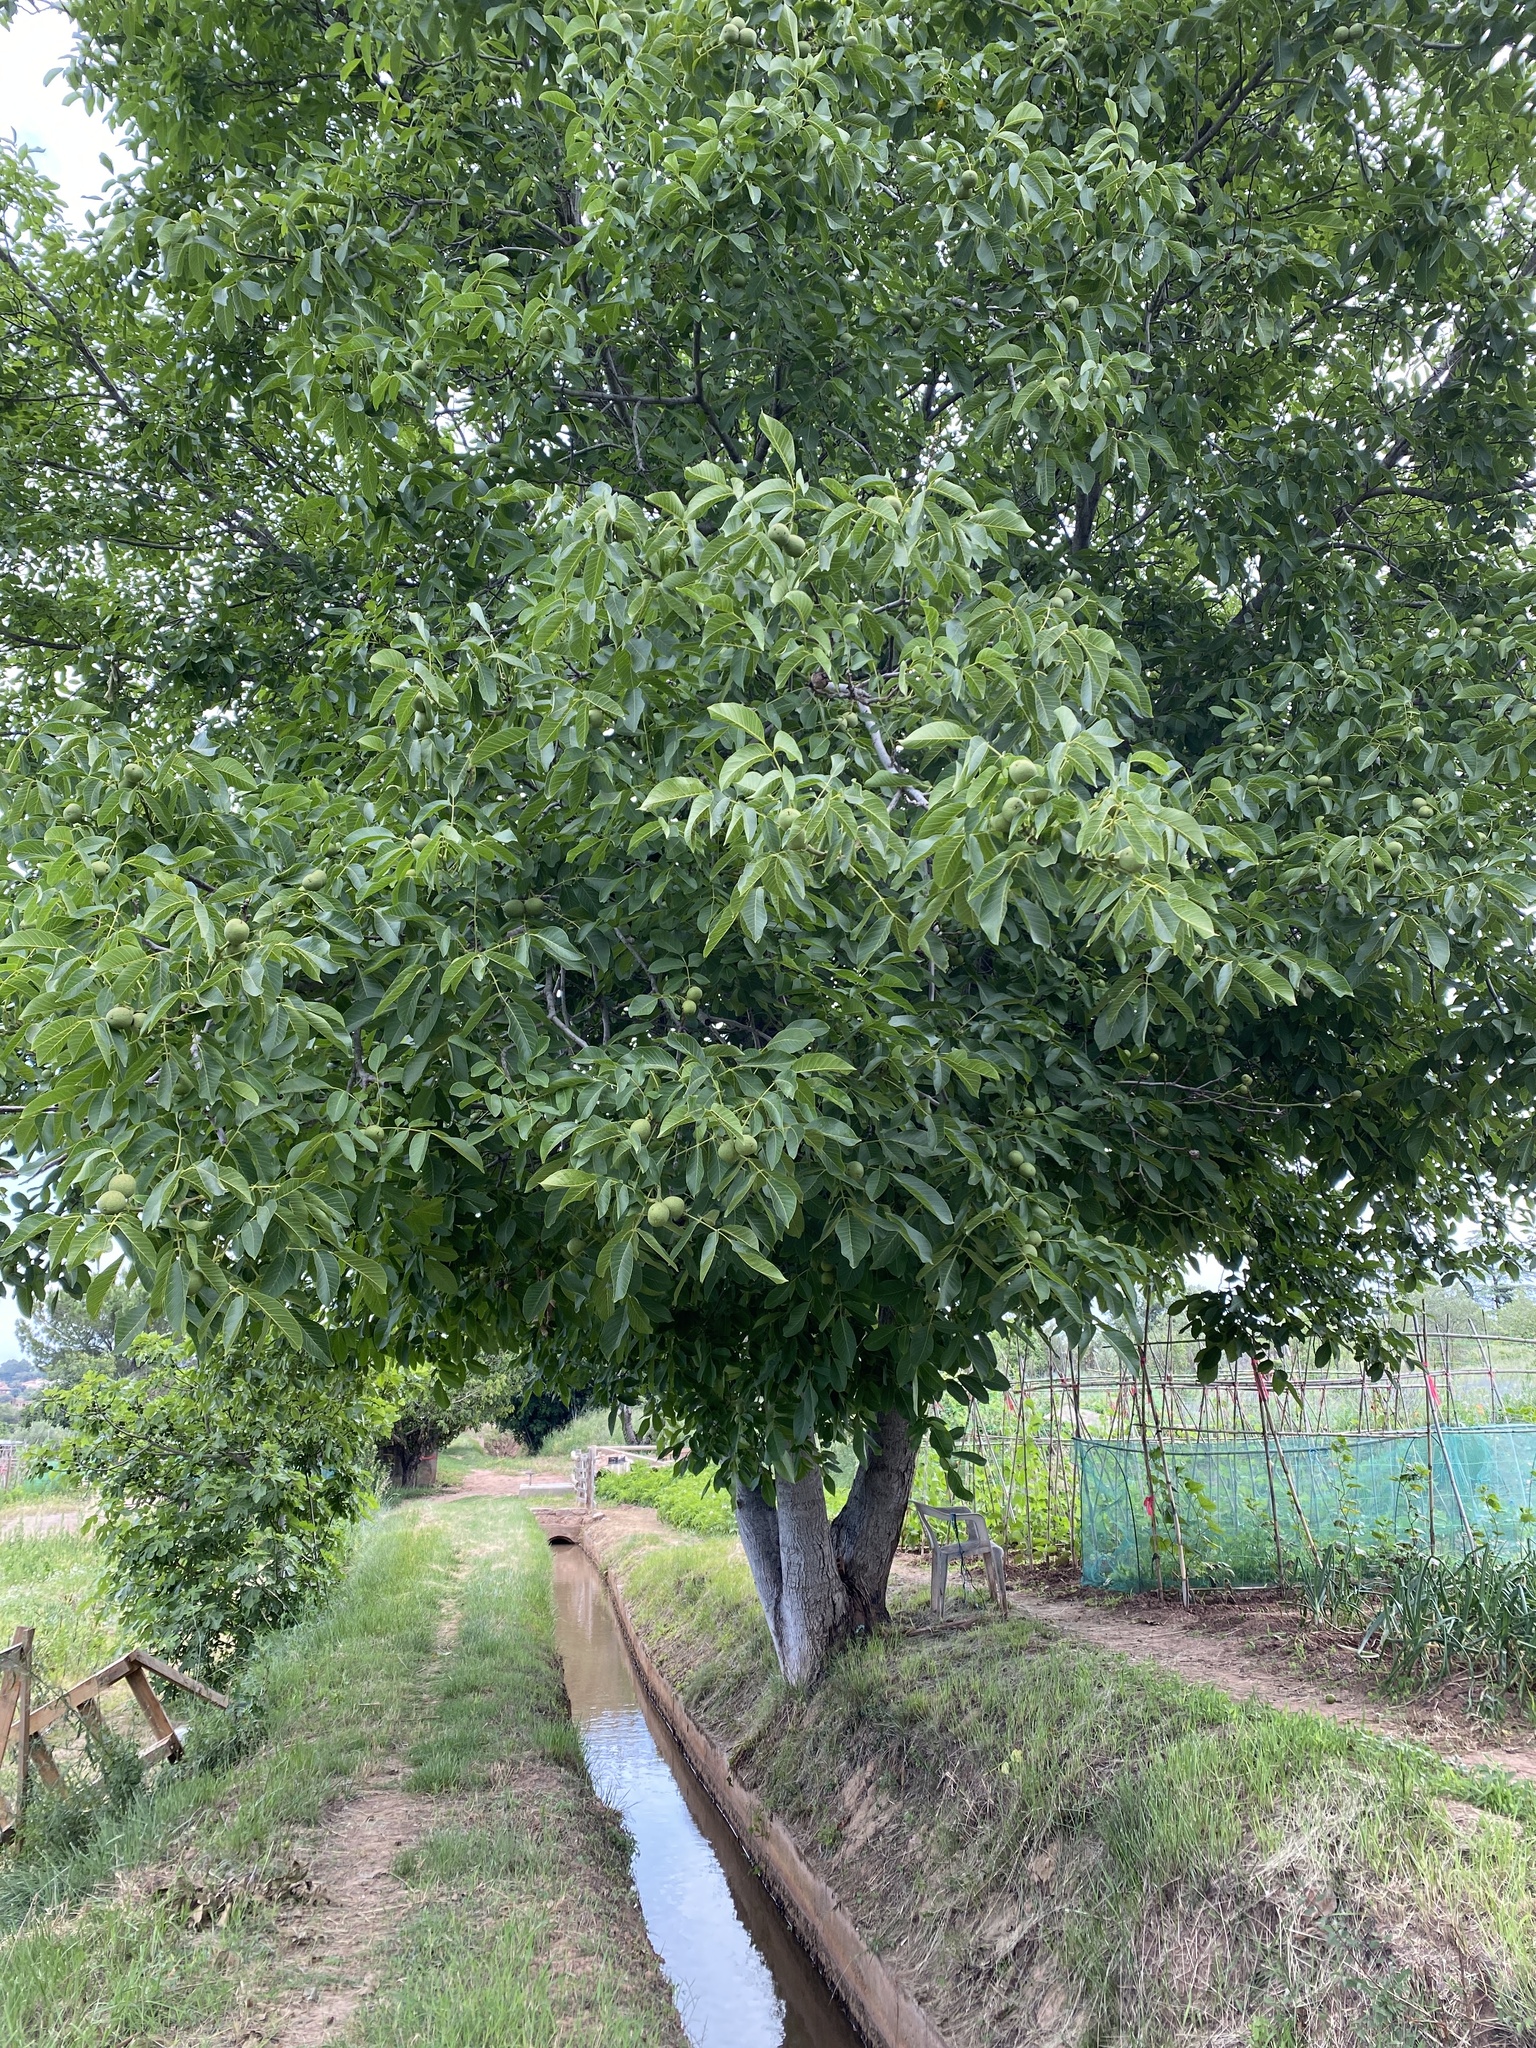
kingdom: Plantae
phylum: Tracheophyta
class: Magnoliopsida
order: Fagales
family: Juglandaceae
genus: Juglans
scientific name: Juglans regia
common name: Walnut
